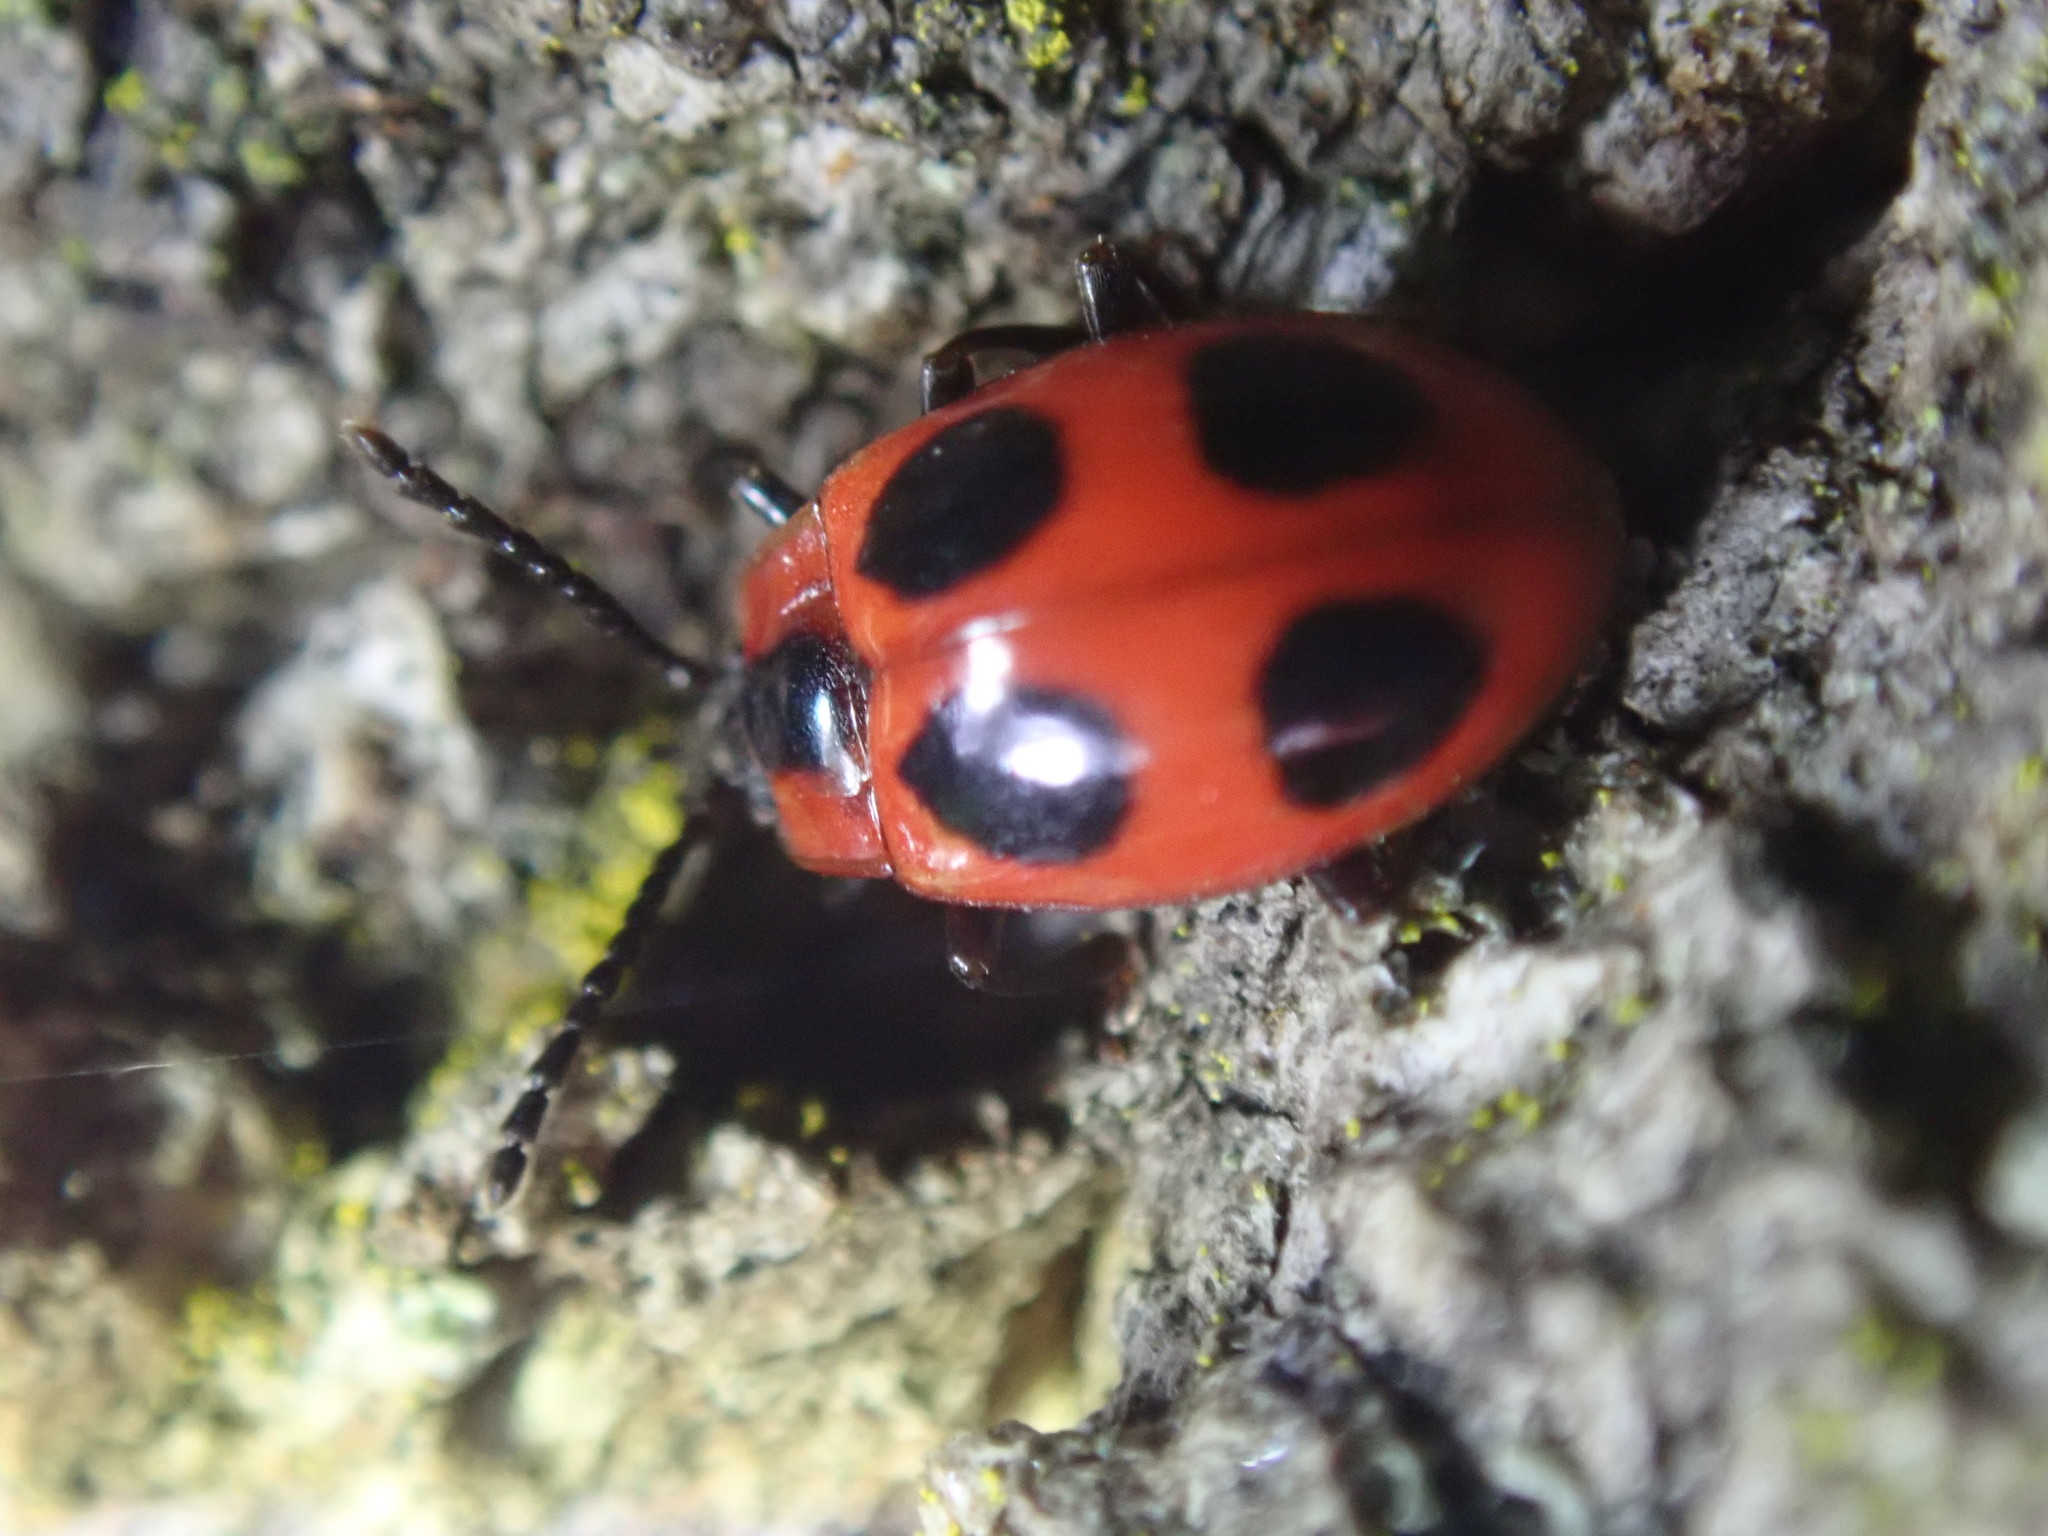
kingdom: Animalia
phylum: Arthropoda
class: Insecta
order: Coleoptera
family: Endomychidae
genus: Endomychus
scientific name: Endomychus coccineus
